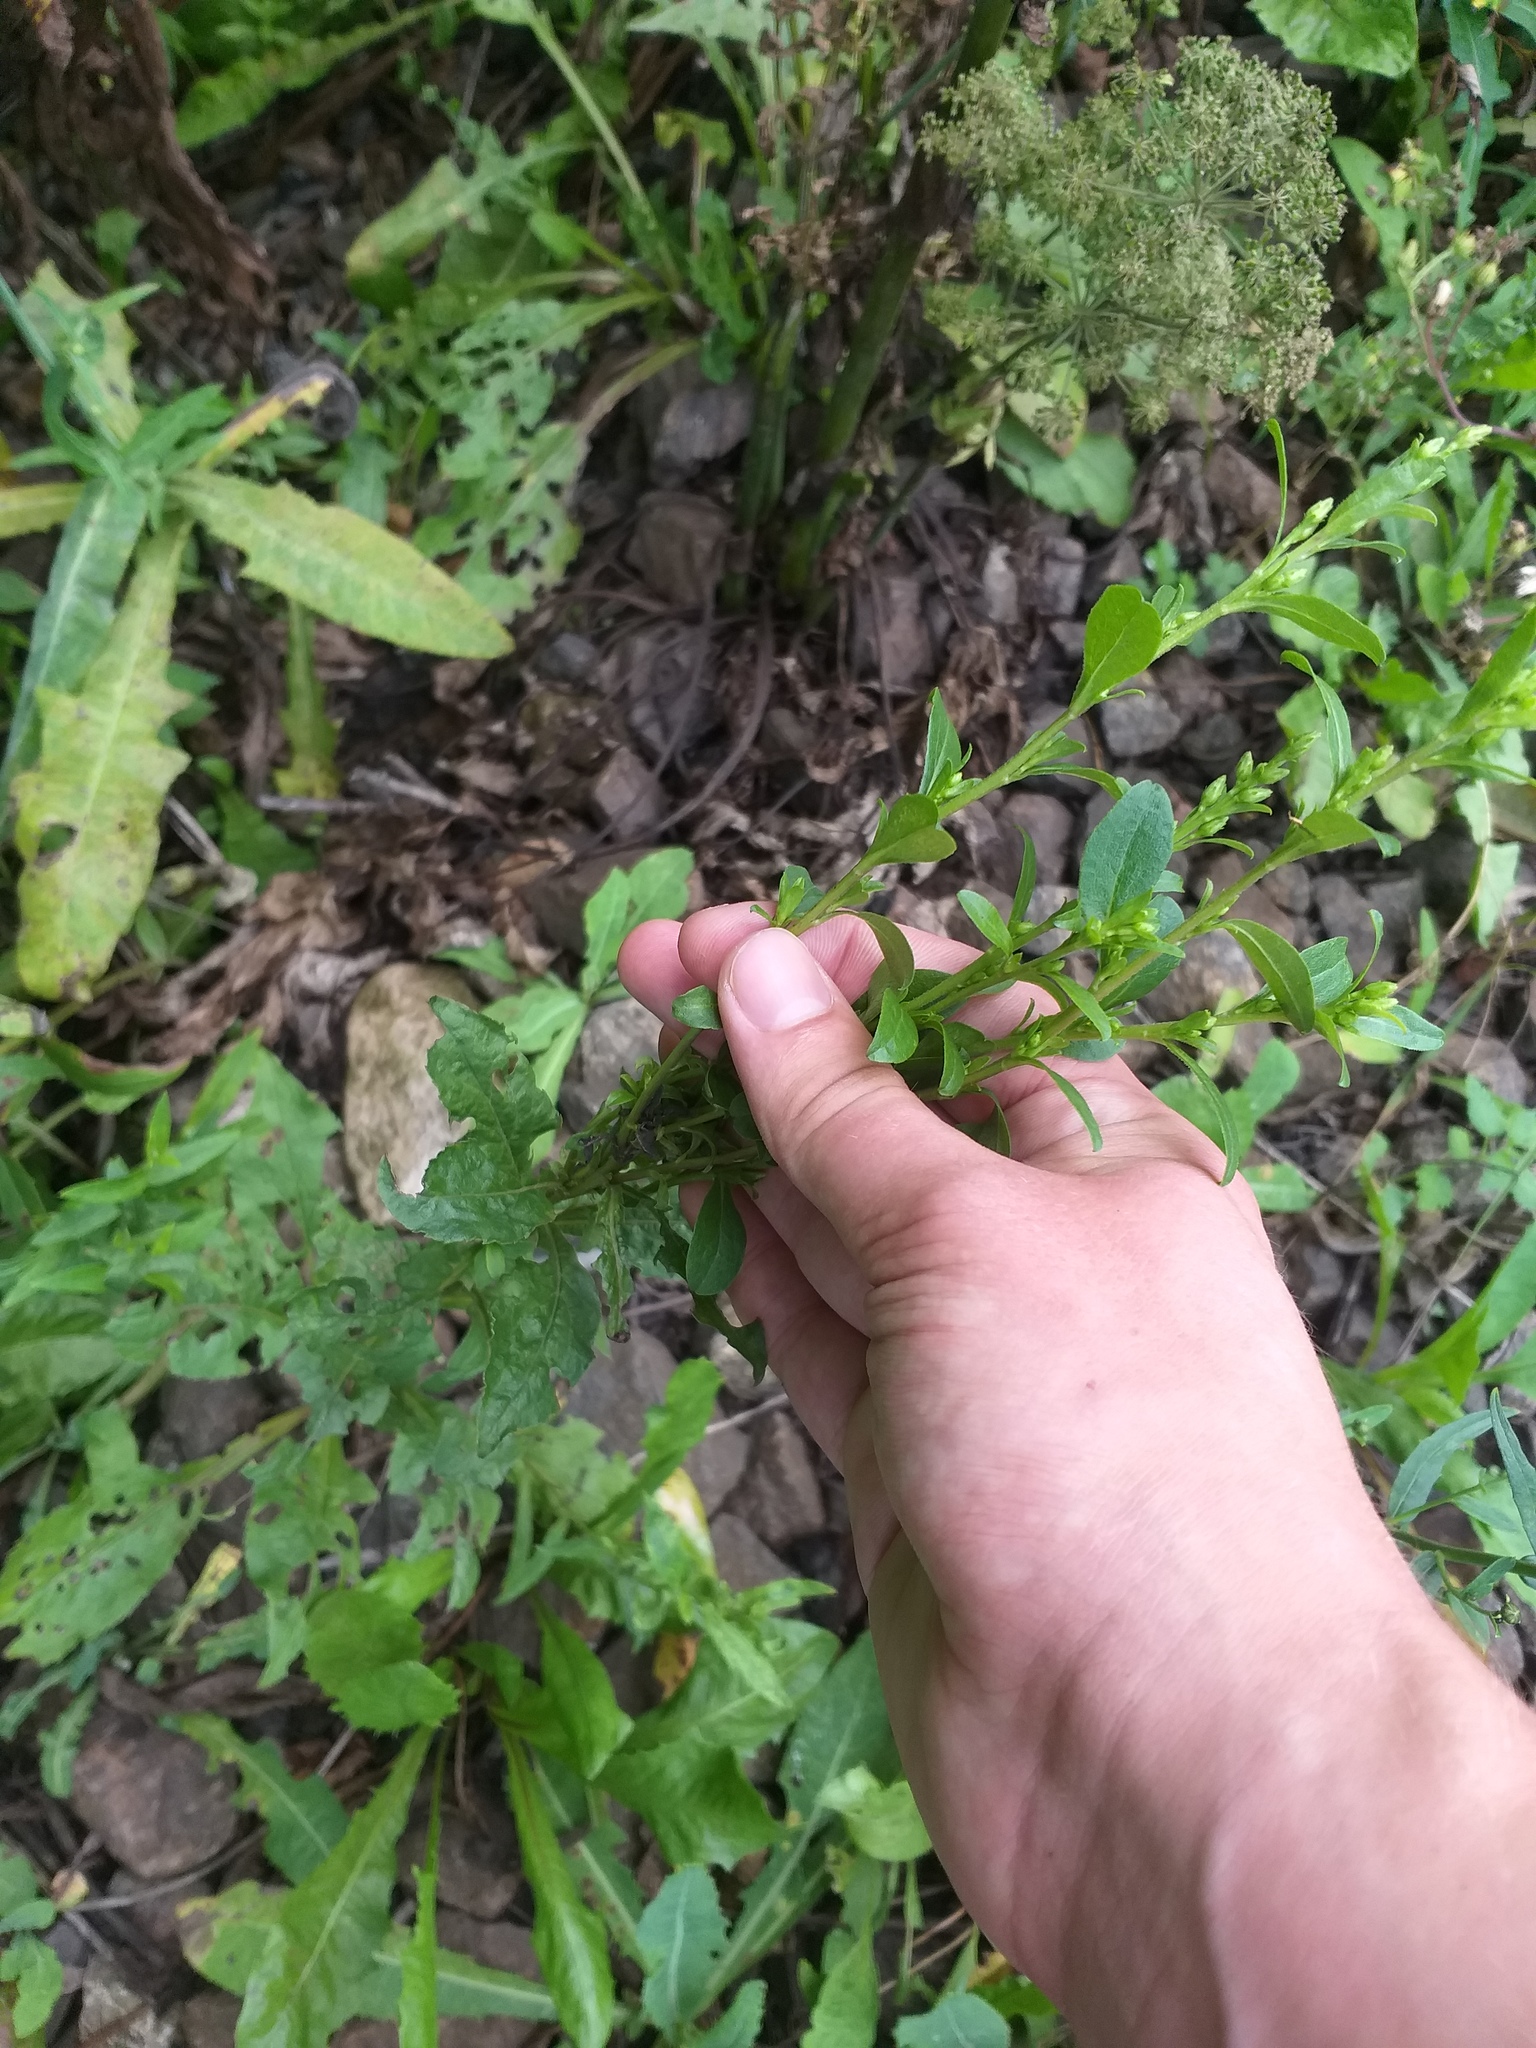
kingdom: Plantae
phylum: Tracheophyta
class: Magnoliopsida
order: Asterales
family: Asteraceae
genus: Solidago
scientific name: Solidago virgaurea
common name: Goldenrod
